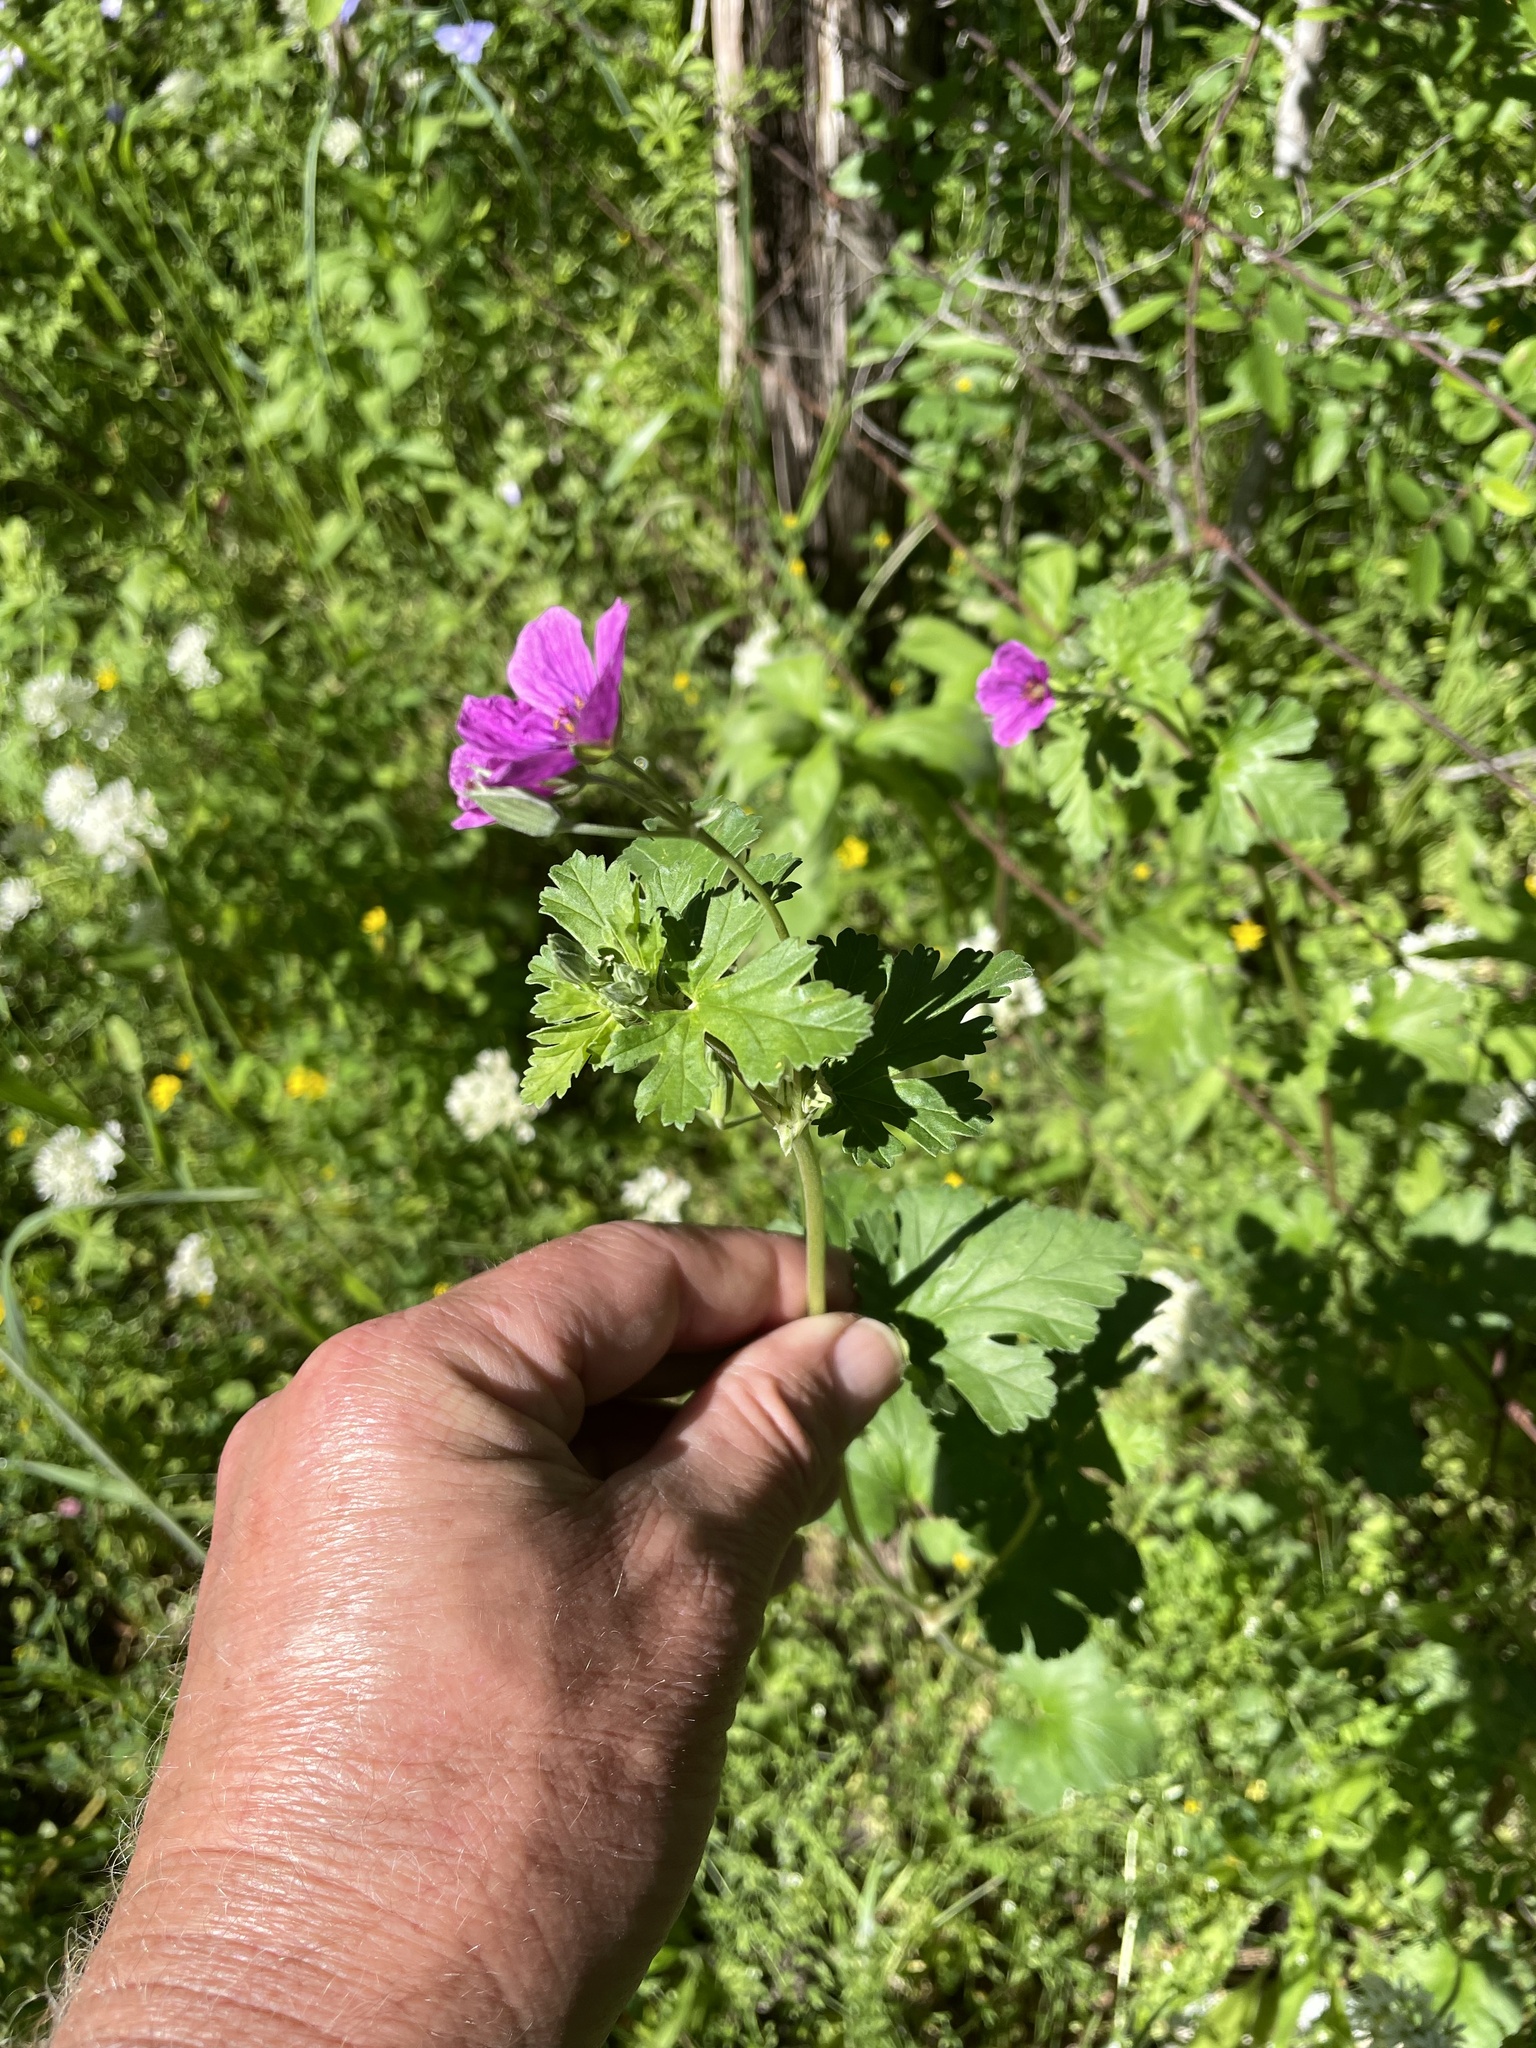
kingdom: Plantae
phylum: Tracheophyta
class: Magnoliopsida
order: Geraniales
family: Geraniaceae
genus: Erodium
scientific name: Erodium texanum
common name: Texas stork's-bill
